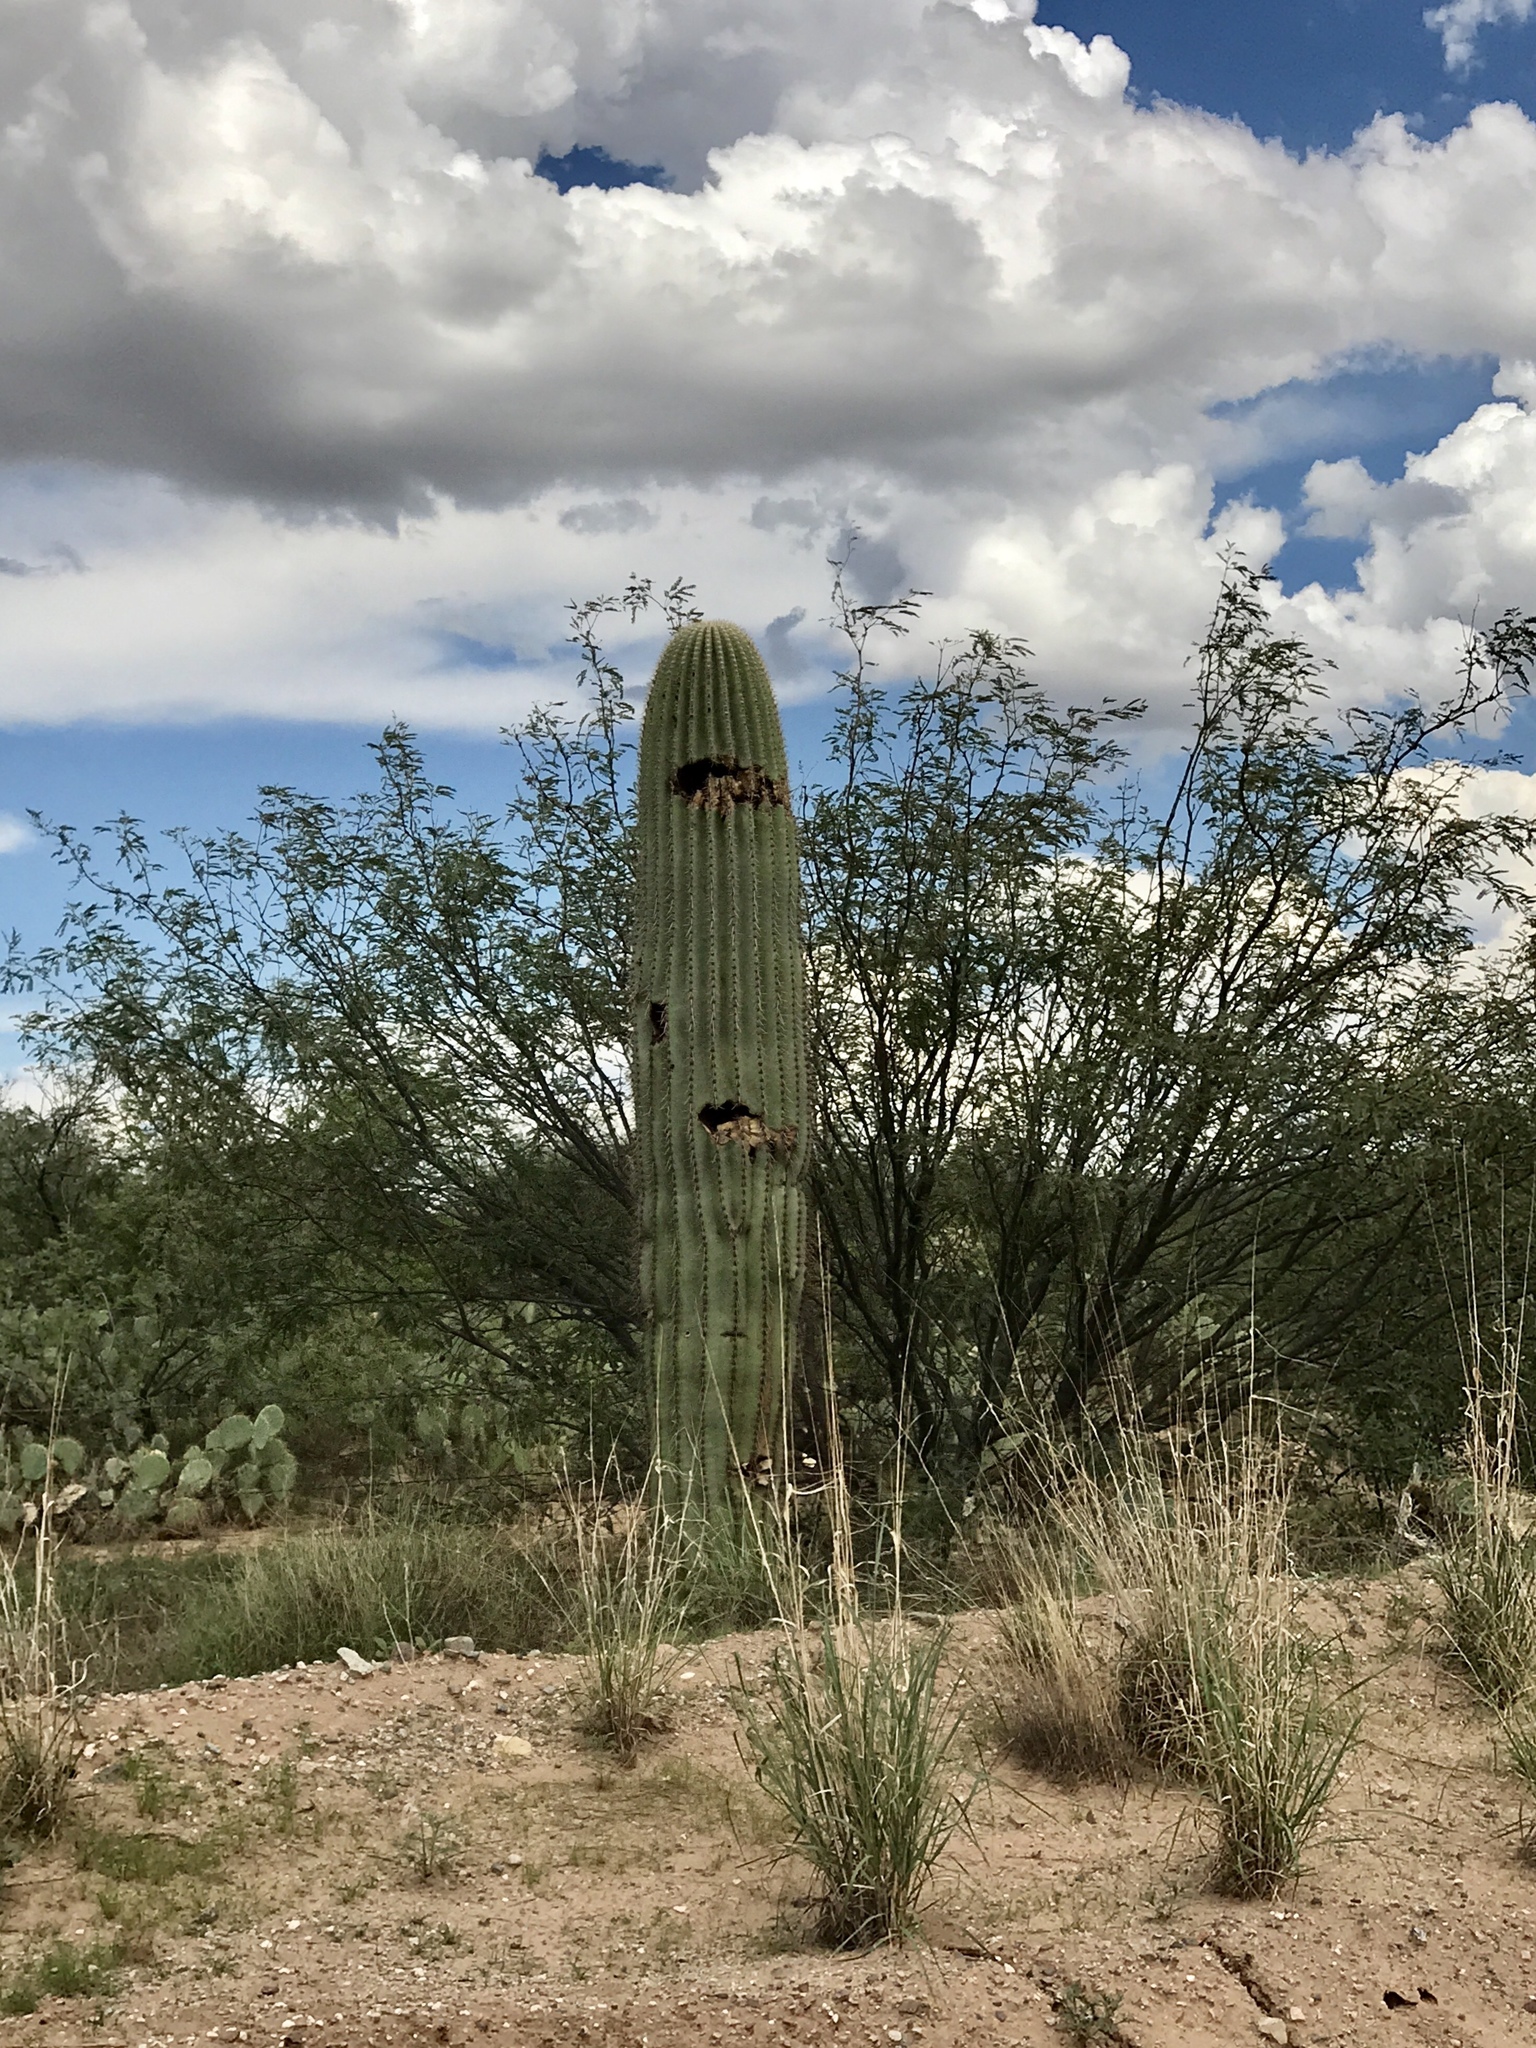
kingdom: Plantae
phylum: Tracheophyta
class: Magnoliopsida
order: Caryophyllales
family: Cactaceae
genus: Carnegiea
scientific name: Carnegiea gigantea
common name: Saguaro
